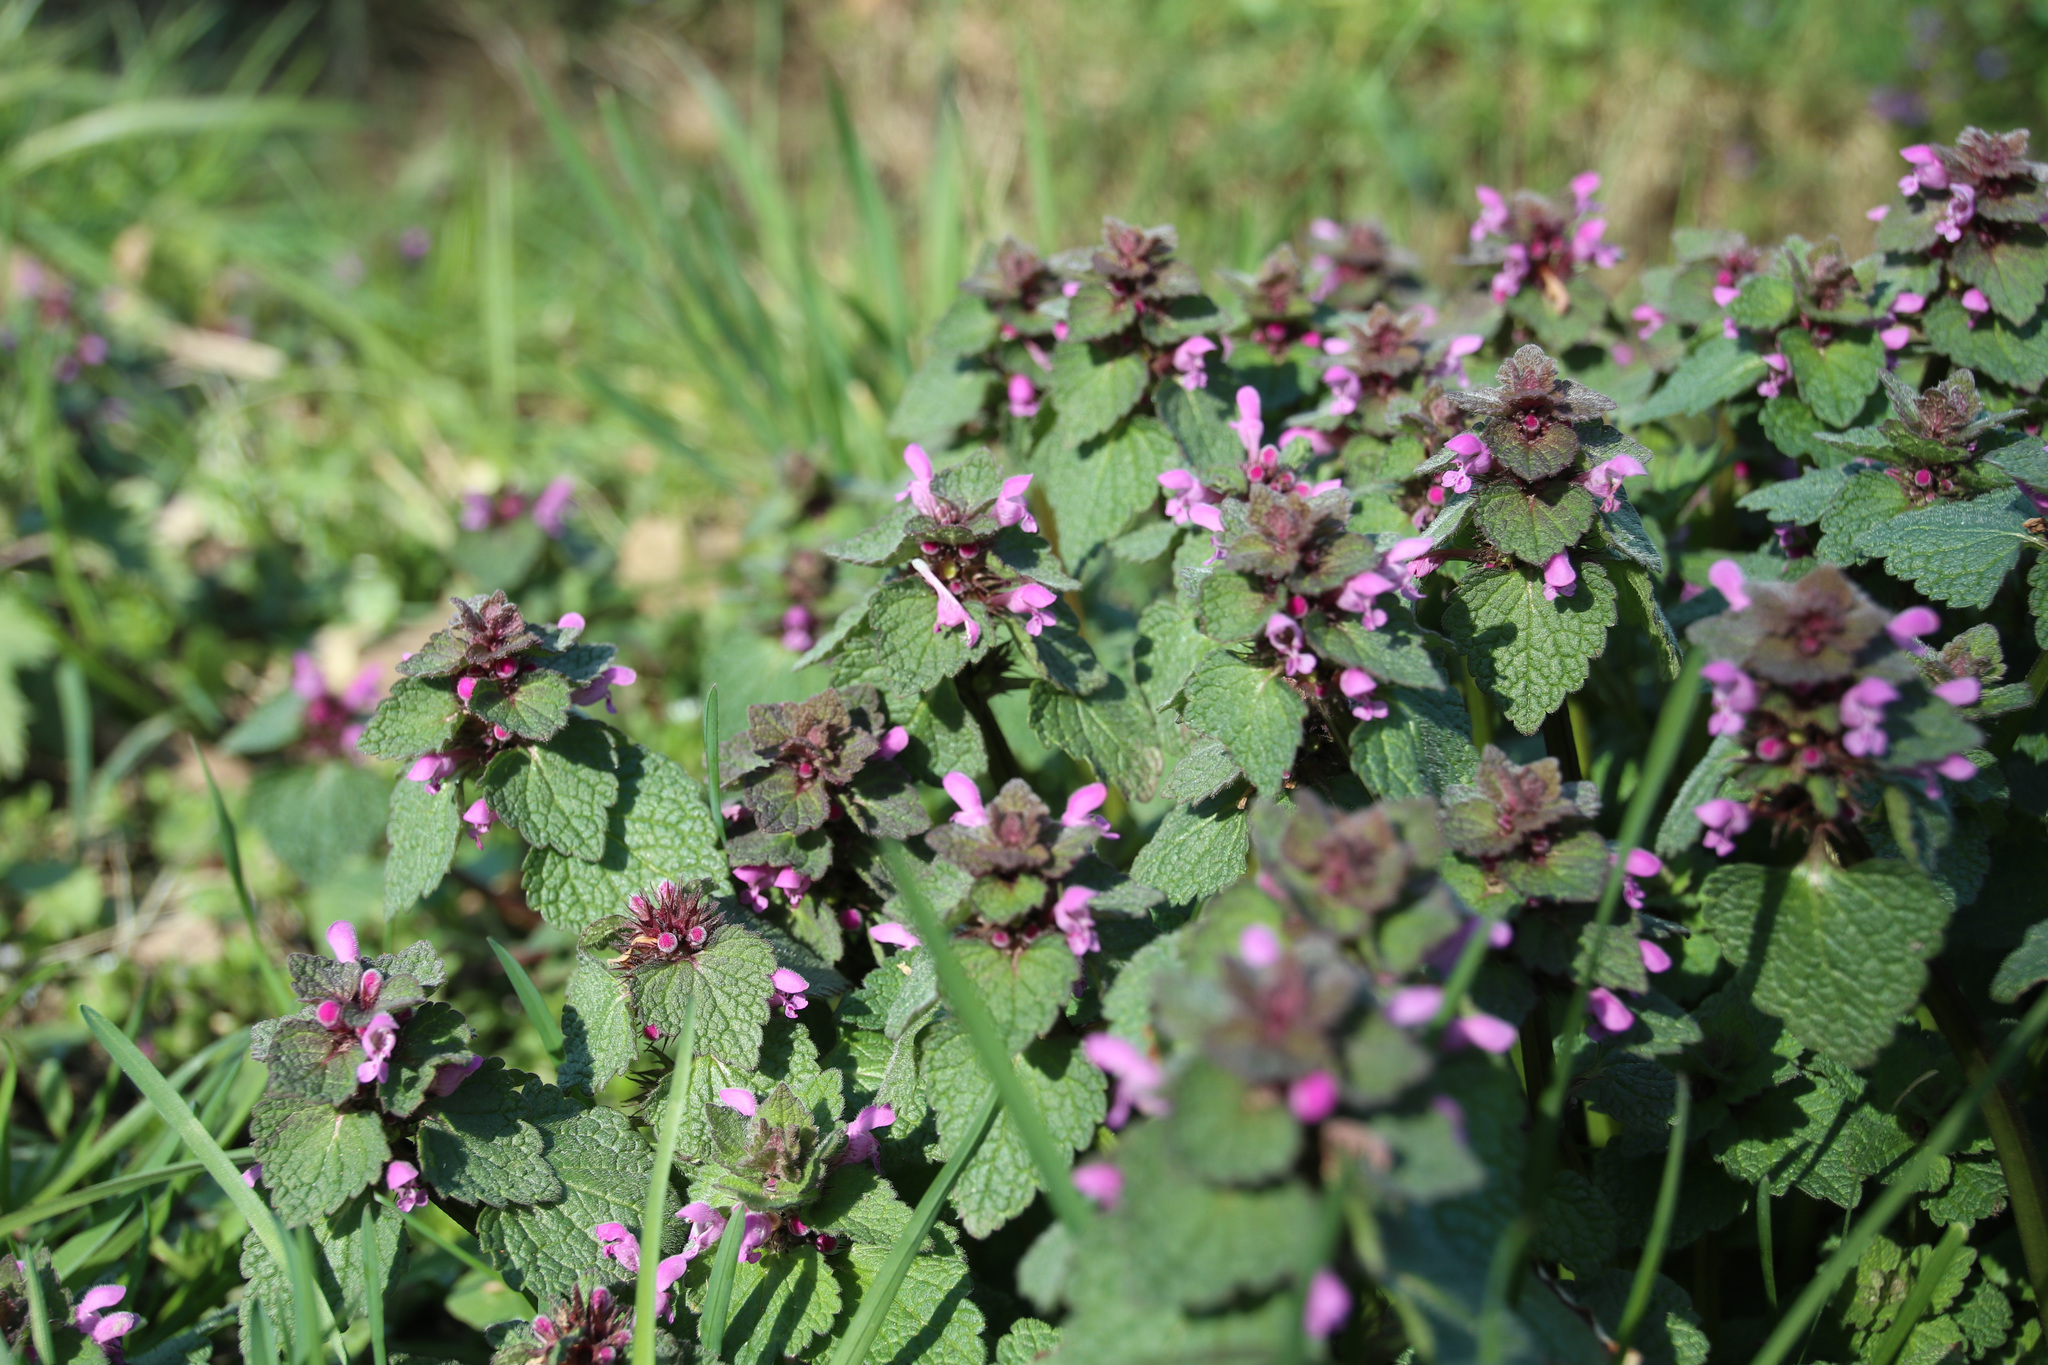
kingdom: Plantae
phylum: Tracheophyta
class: Magnoliopsida
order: Lamiales
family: Lamiaceae
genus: Lamium
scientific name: Lamium purpureum
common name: Red dead-nettle
